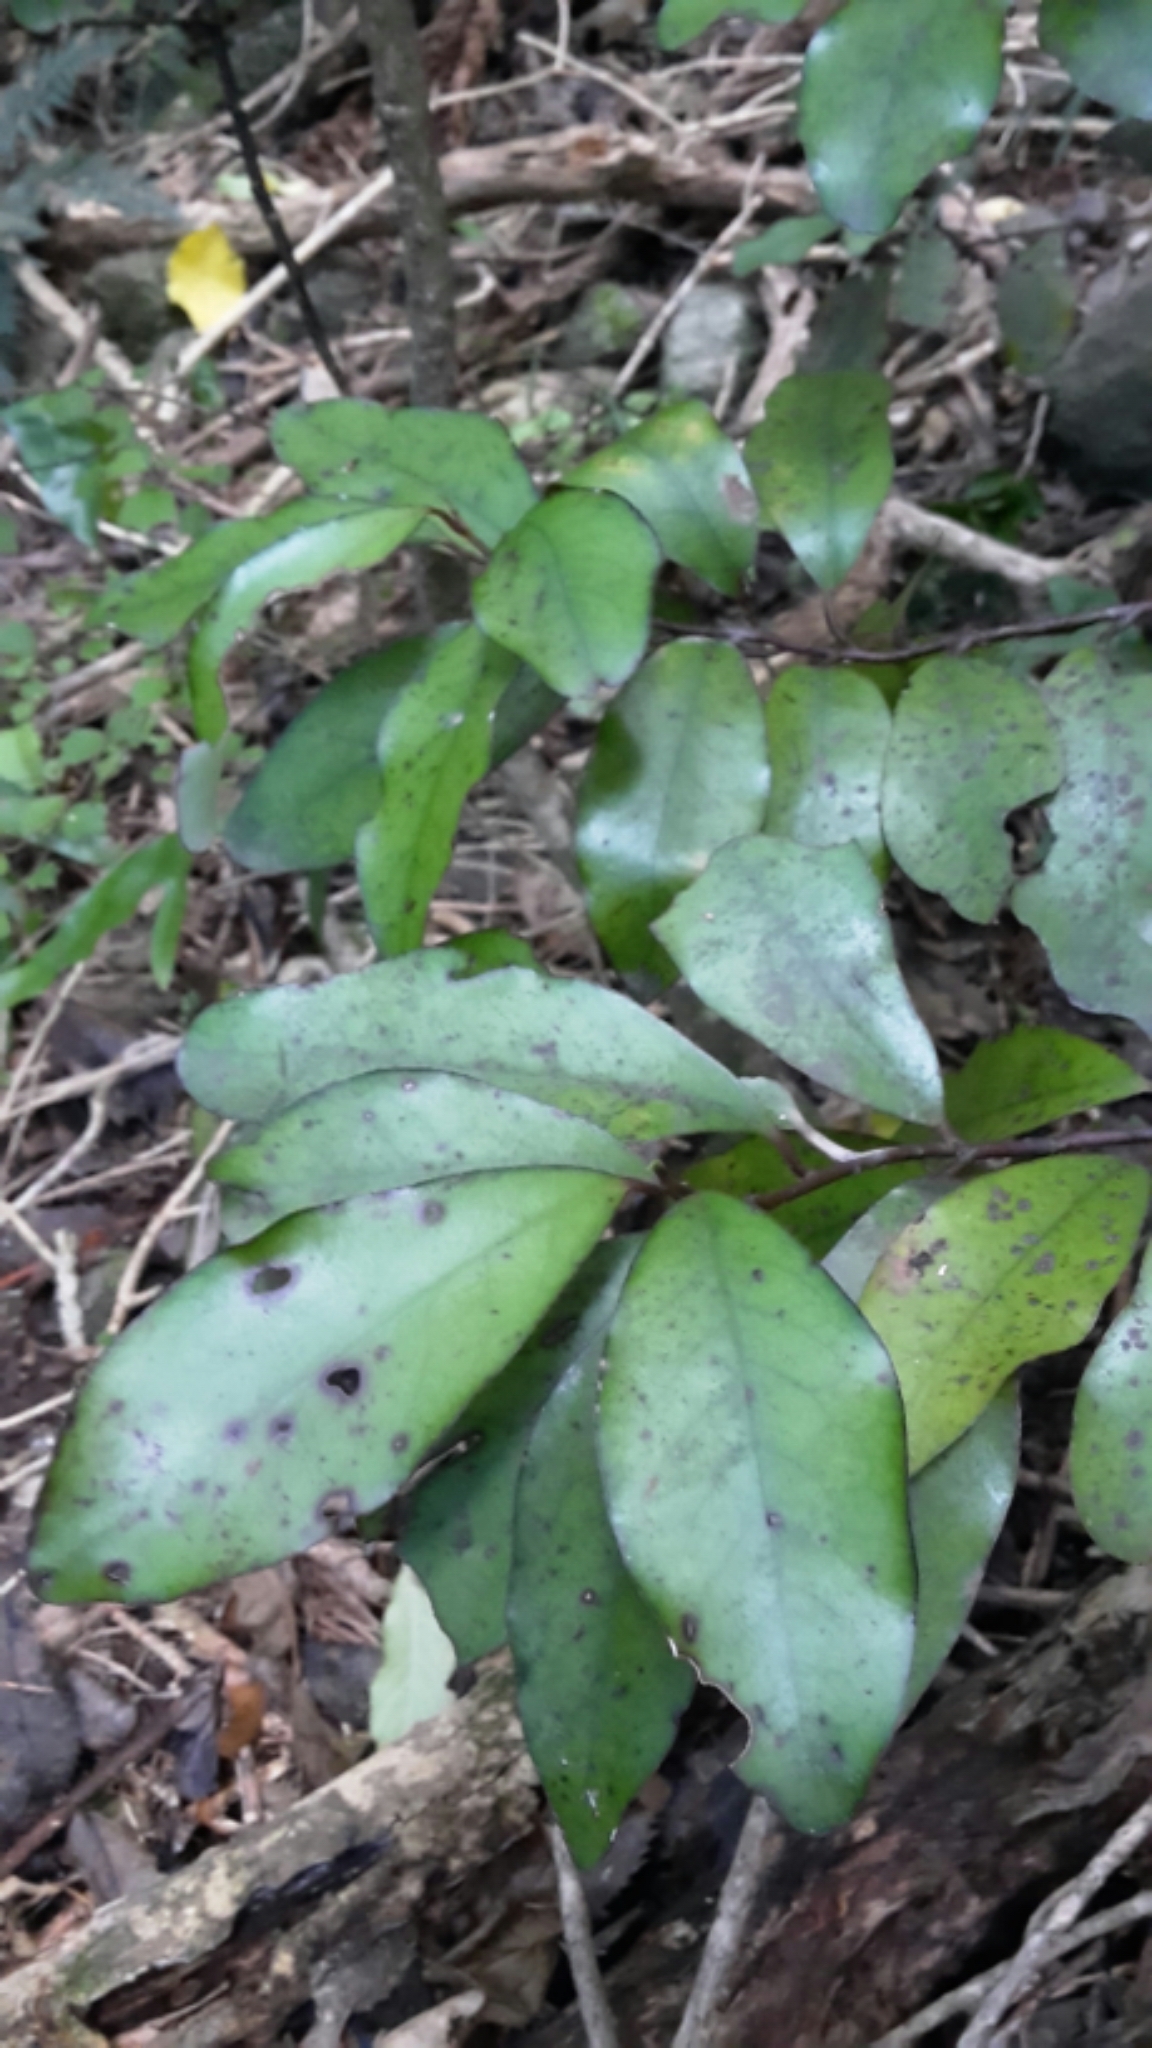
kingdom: Plantae
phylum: Tracheophyta
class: Magnoliopsida
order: Canellales
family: Winteraceae
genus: Pseudowintera
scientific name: Pseudowintera colorata
